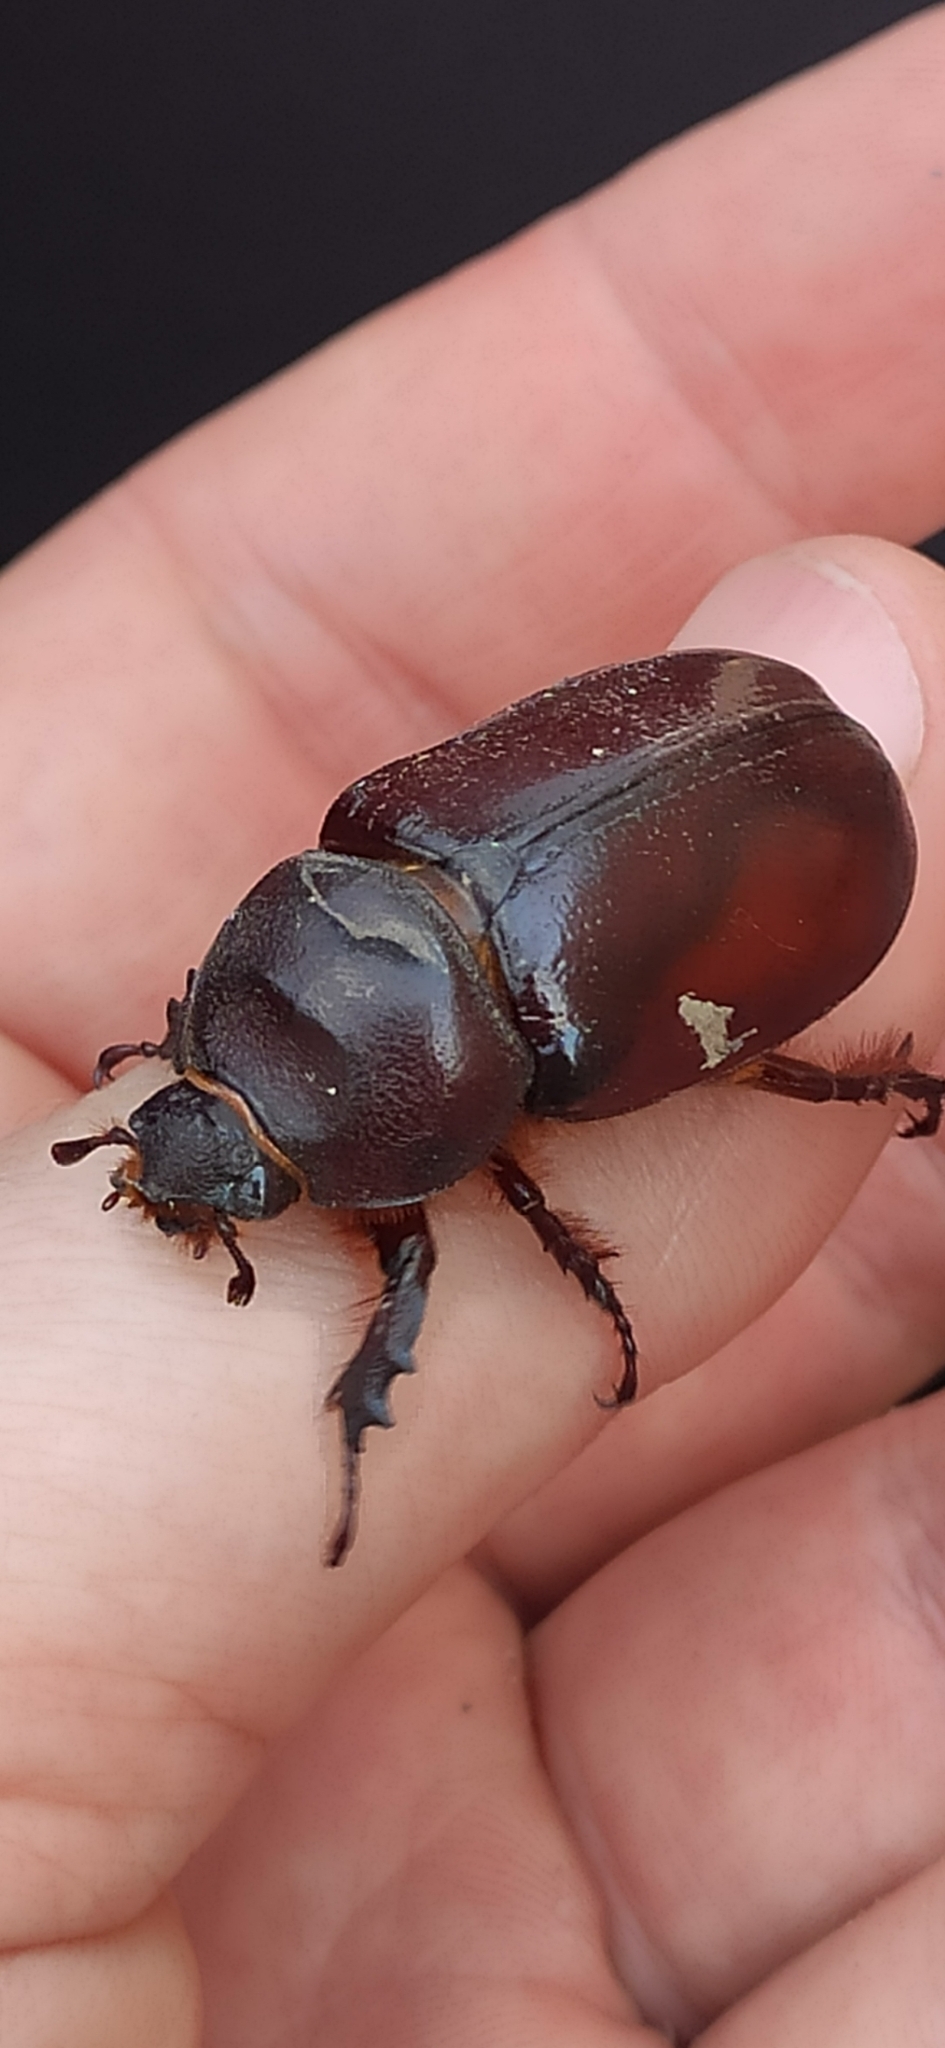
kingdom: Animalia
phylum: Arthropoda
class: Insecta
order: Coleoptera
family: Scarabaeidae
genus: Oryctes
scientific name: Oryctes nasicornis
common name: European rhinoceros beetle
